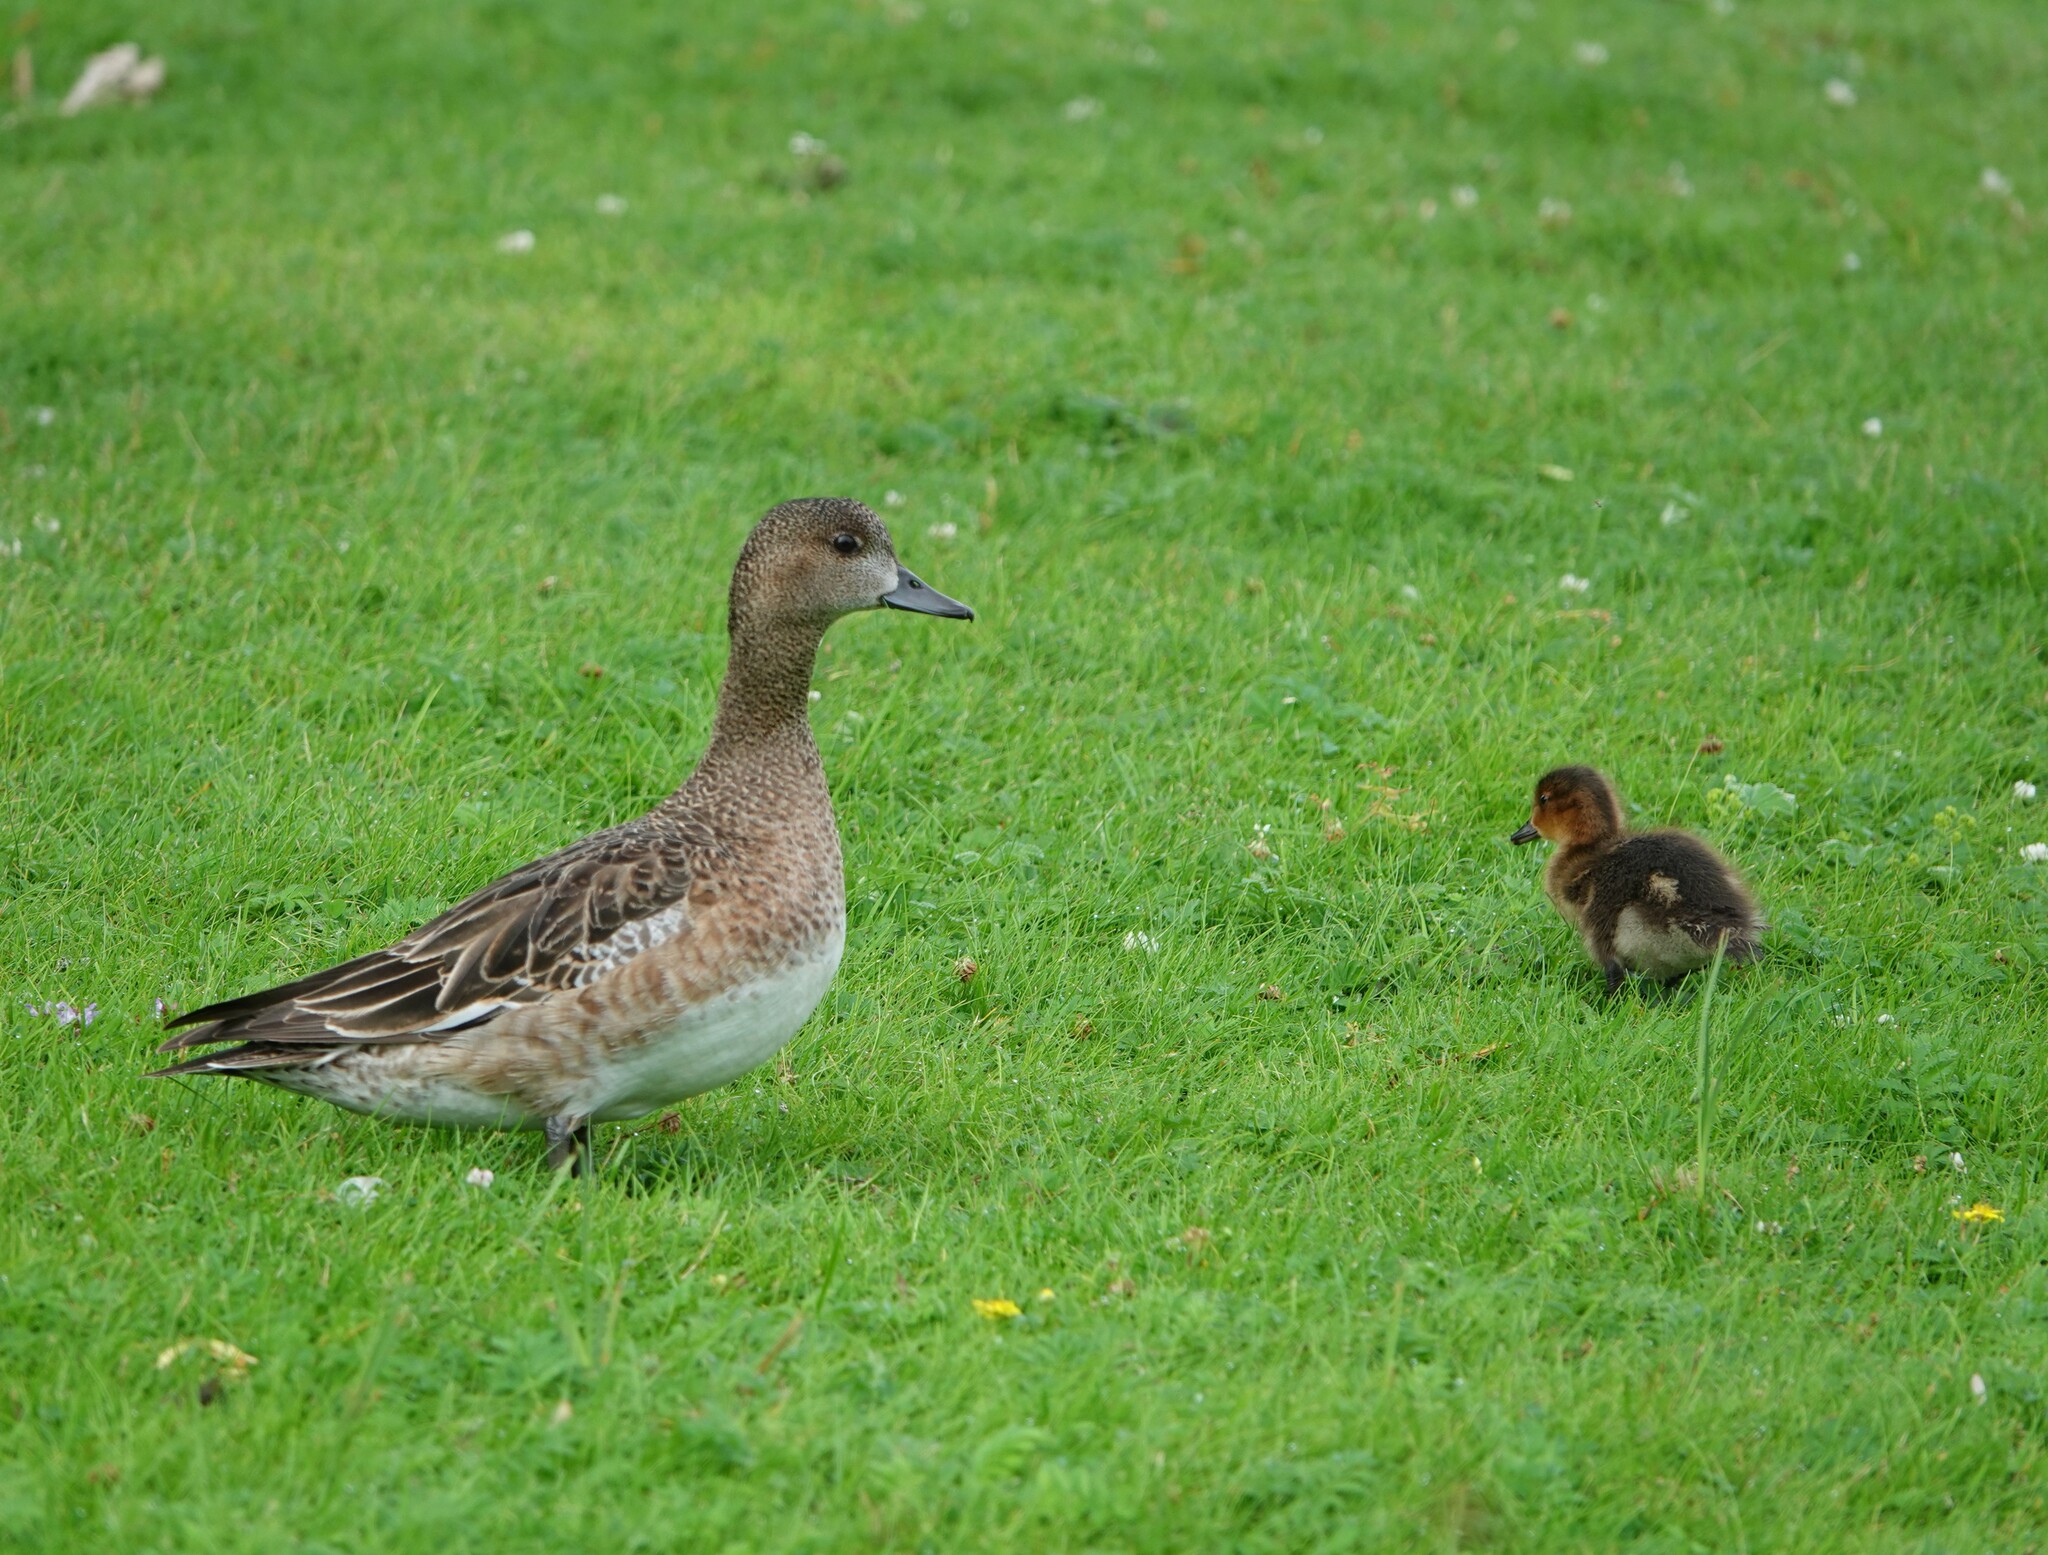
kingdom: Animalia
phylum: Chordata
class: Aves
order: Anseriformes
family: Anatidae
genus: Mareca
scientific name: Mareca penelope
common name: Eurasian wigeon
